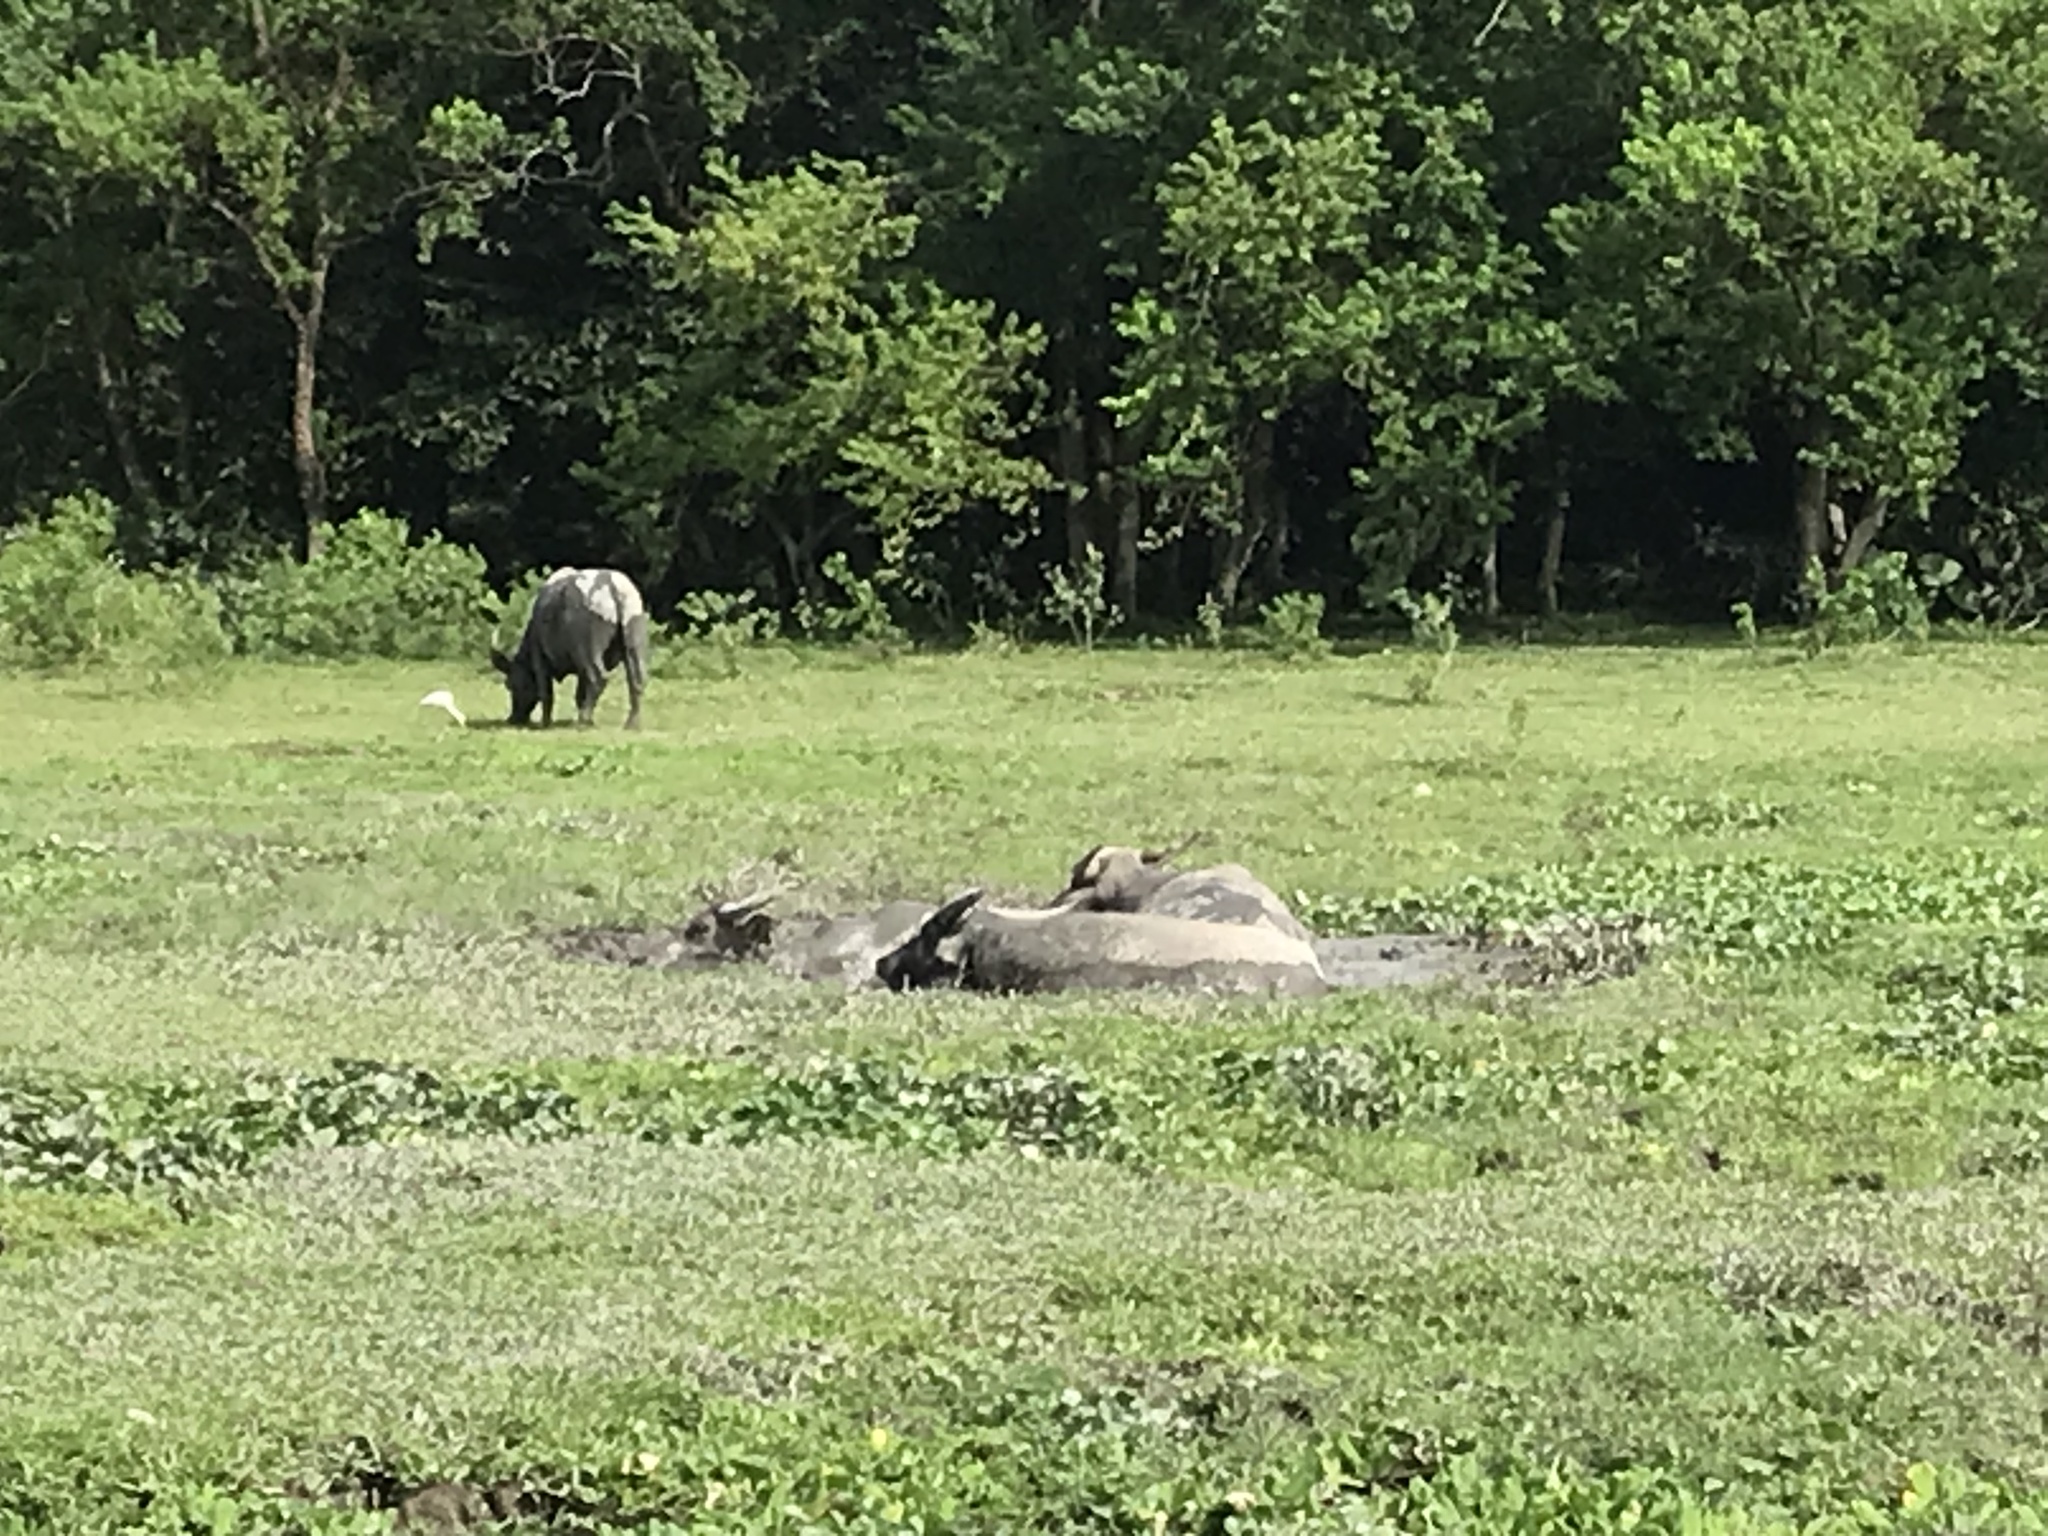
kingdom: Animalia
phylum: Chordata
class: Mammalia
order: Artiodactyla
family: Bovidae
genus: Bubalus
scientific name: Bubalus bubalis
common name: Water buffalo
